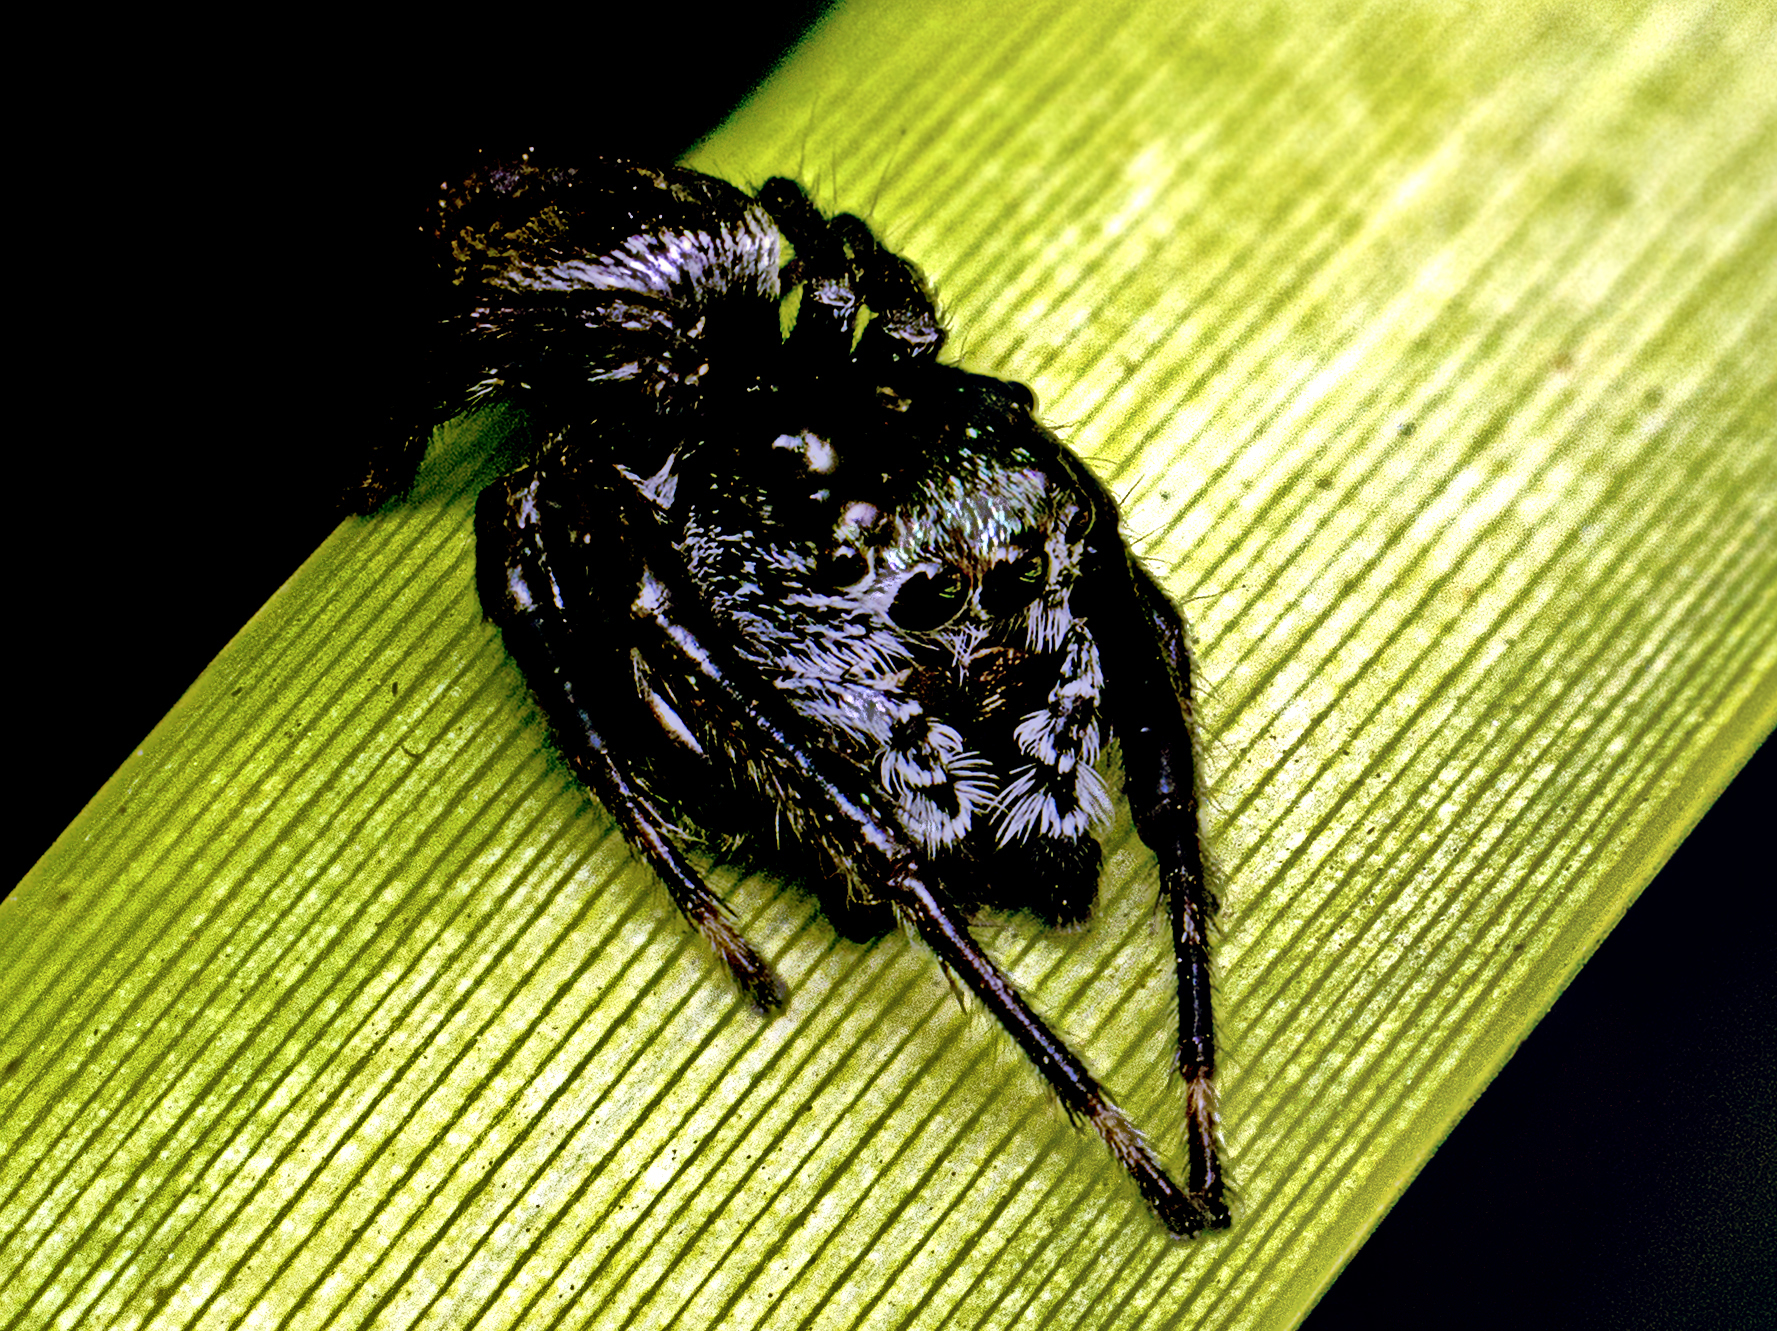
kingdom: Animalia
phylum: Arthropoda
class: Arachnida
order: Araneae
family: Salticidae
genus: Euryattus
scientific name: Euryattus bleekeri
